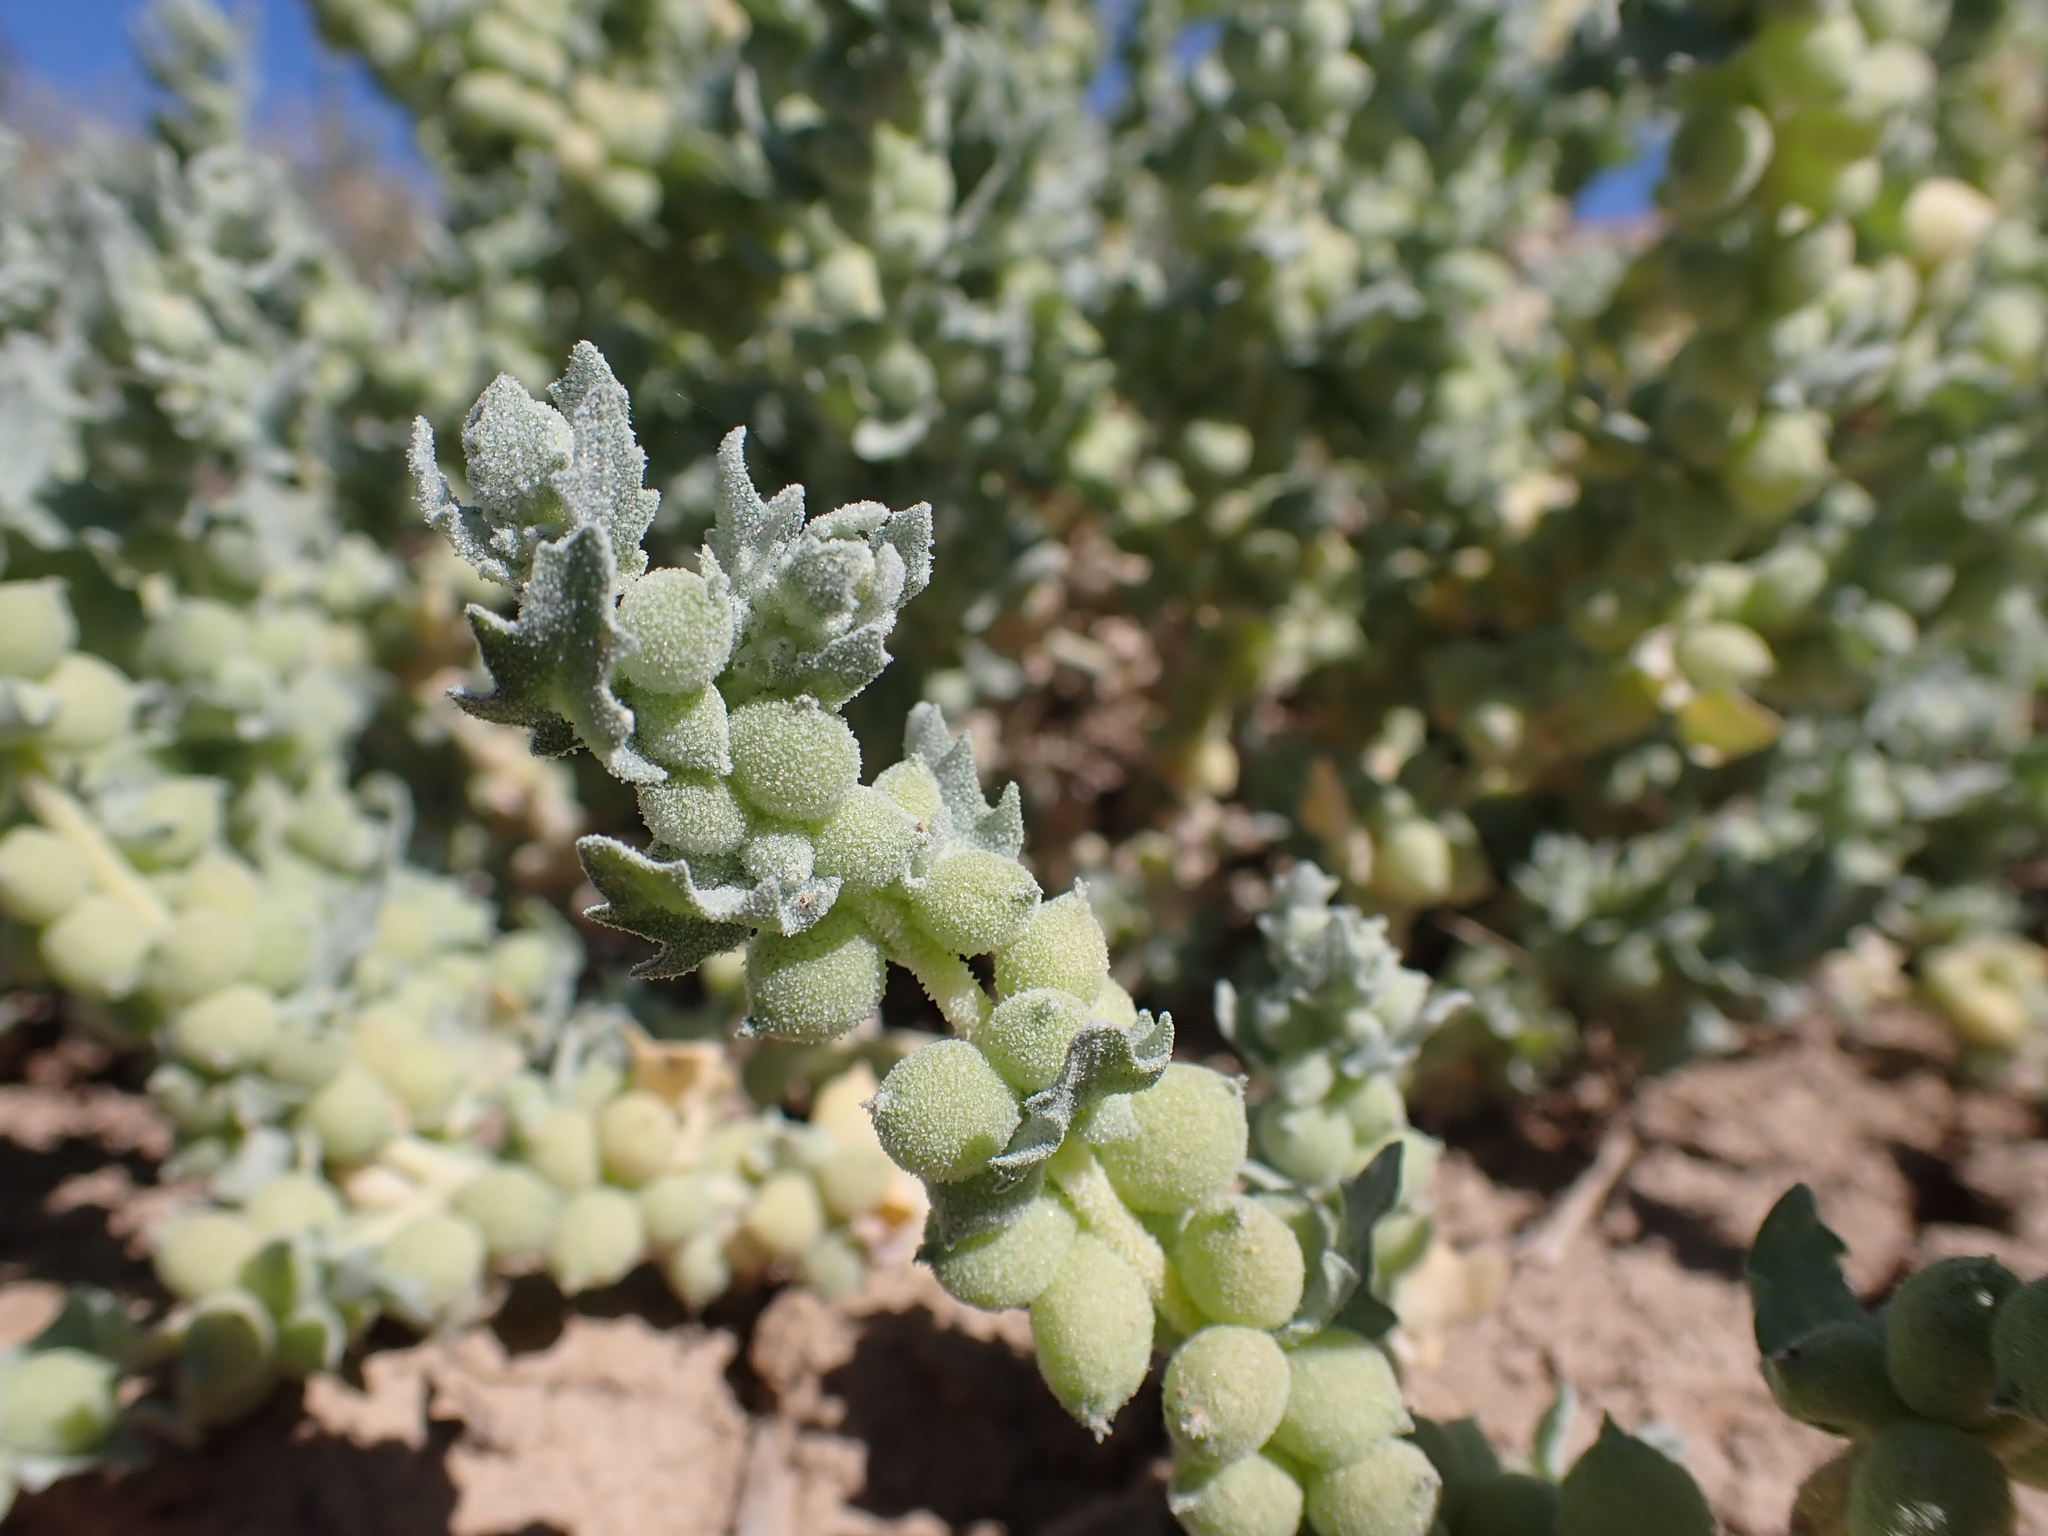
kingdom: Plantae
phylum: Tracheophyta
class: Magnoliopsida
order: Caryophyllales
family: Amaranthaceae
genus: Atriplex
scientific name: Atriplex spongiosa
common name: Pop saltbush
